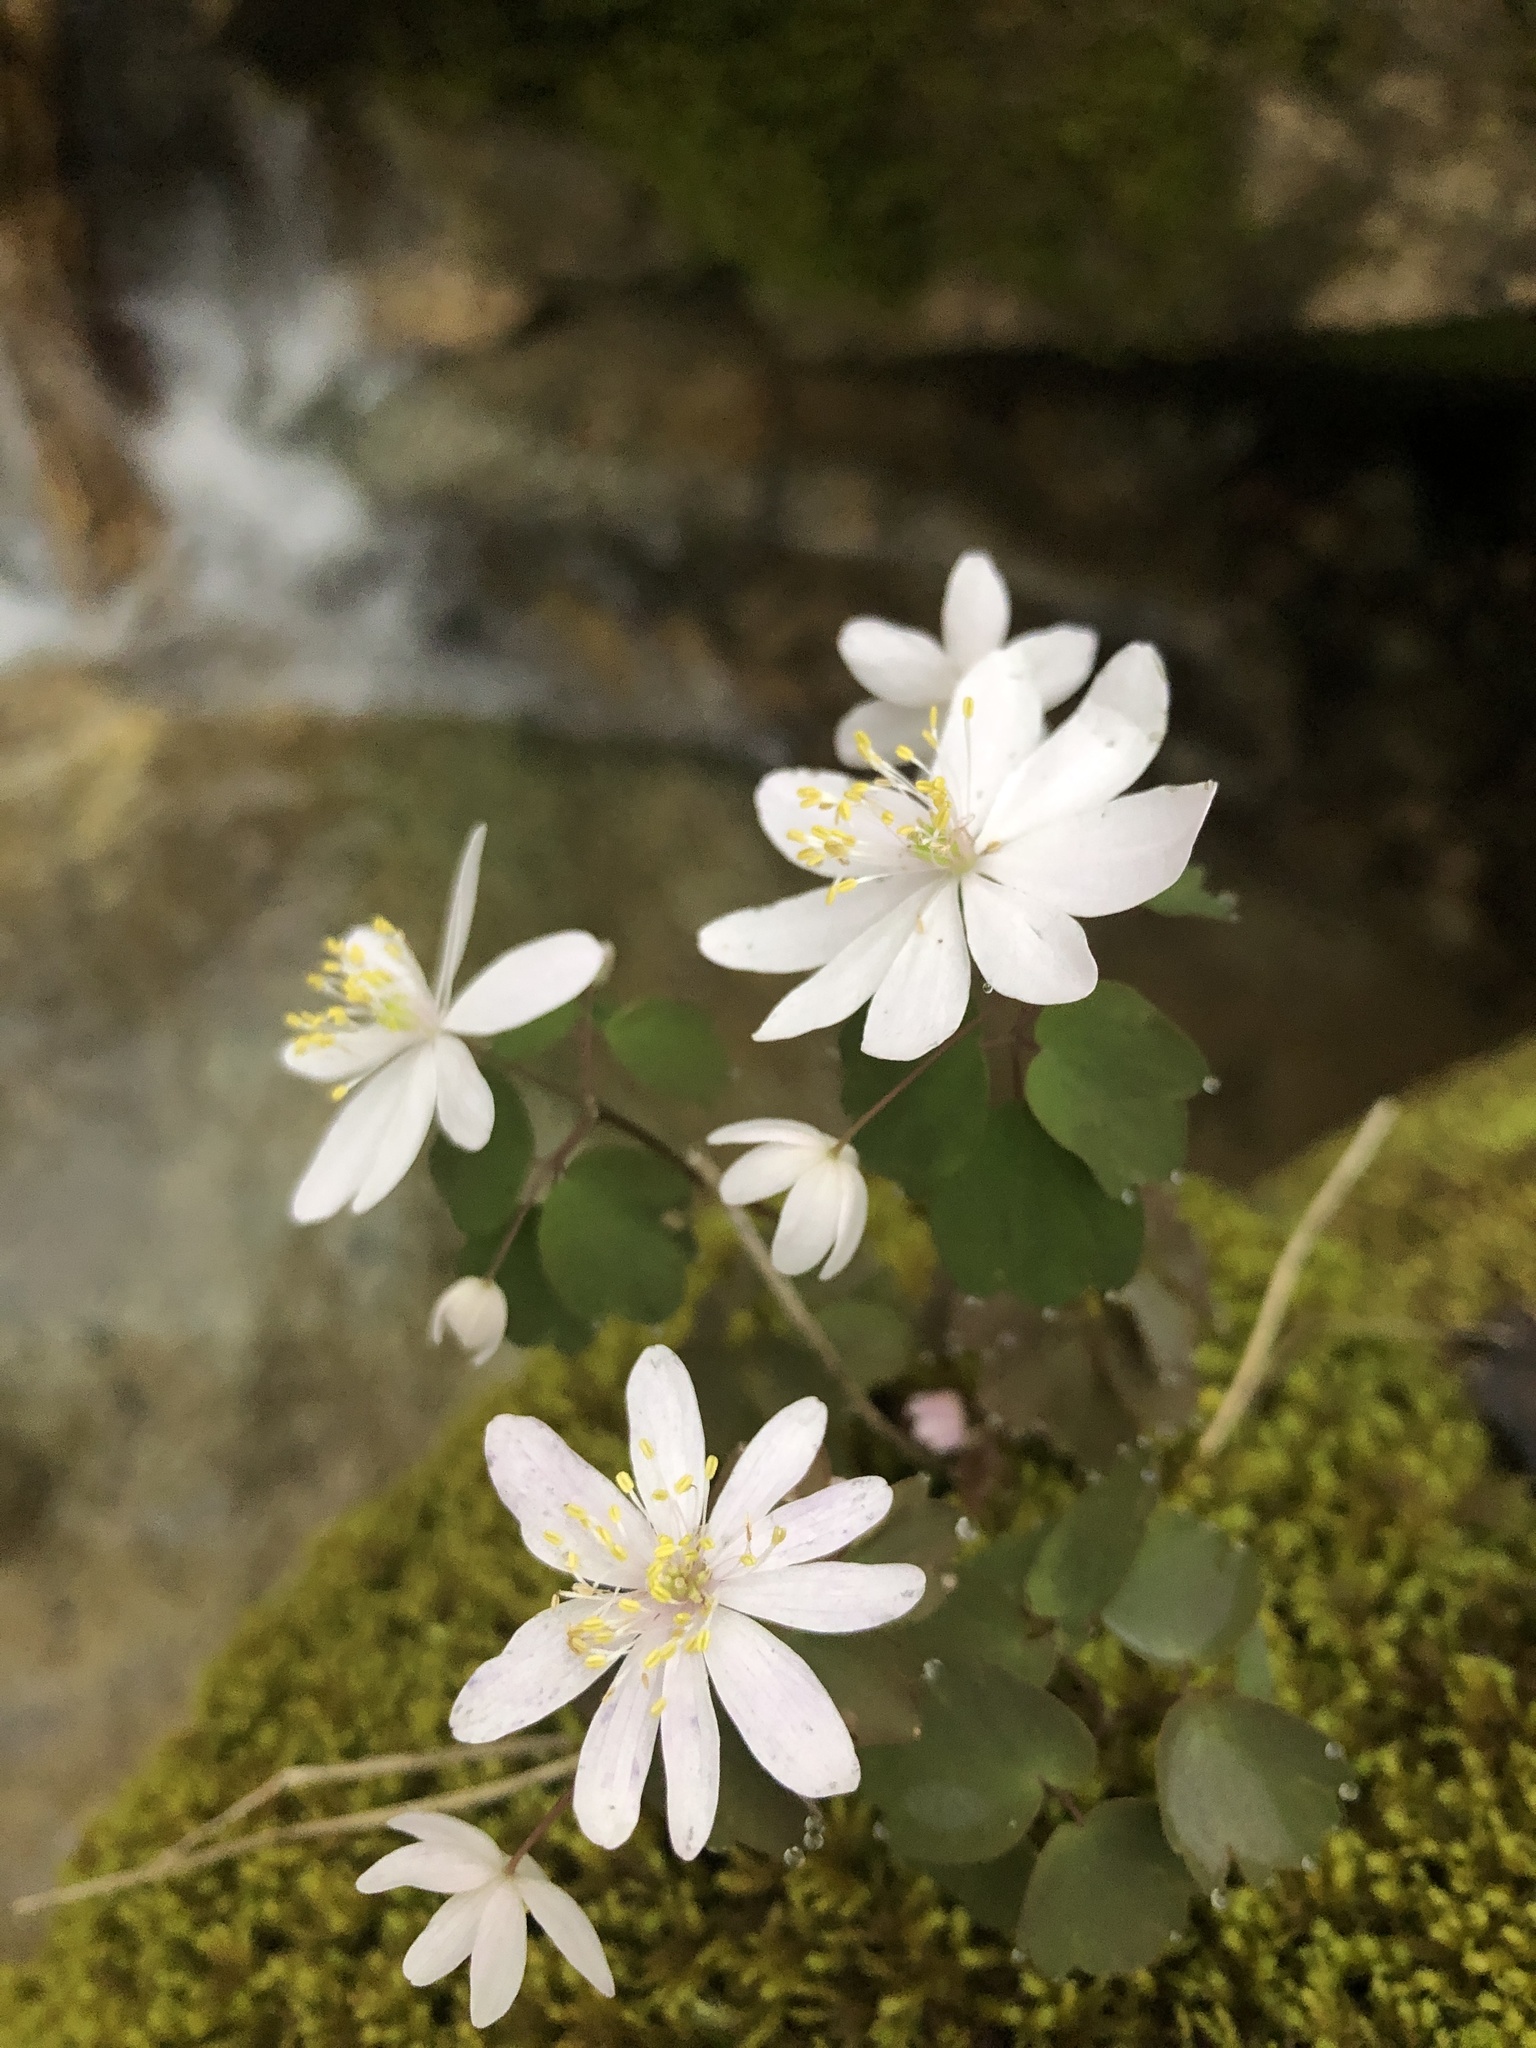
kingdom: Plantae
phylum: Tracheophyta
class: Magnoliopsida
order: Ranunculales
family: Ranunculaceae
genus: Thalictrum
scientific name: Thalictrum thalictroides
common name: Rue-anemone
